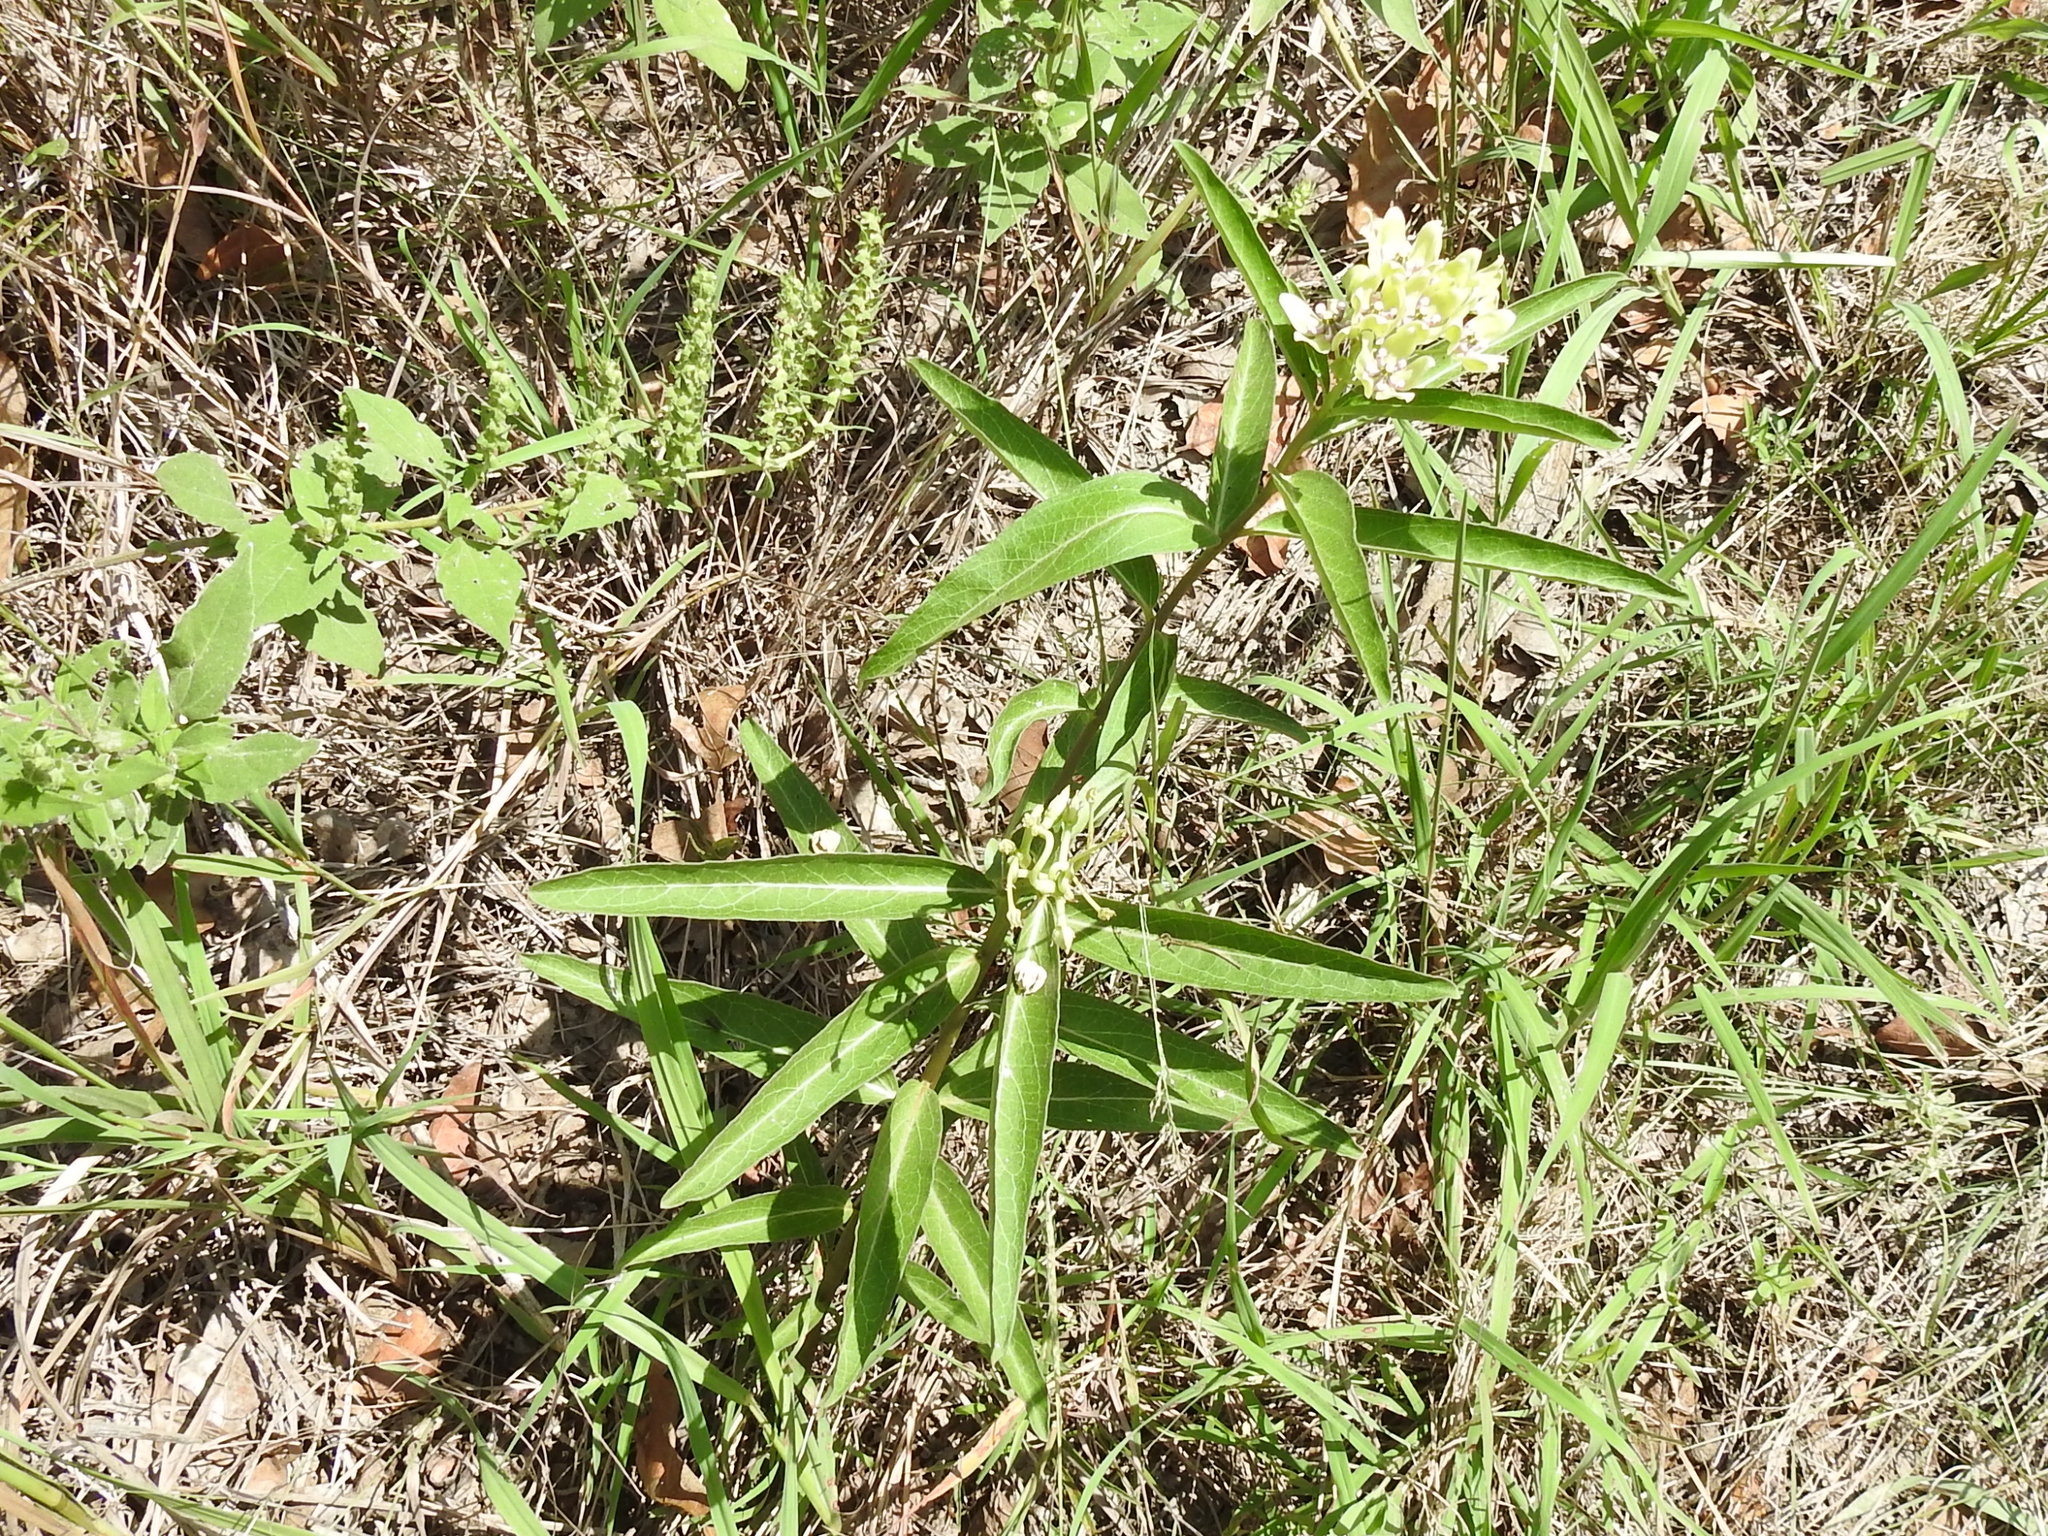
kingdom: Plantae
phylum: Tracheophyta
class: Magnoliopsida
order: Gentianales
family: Apocynaceae
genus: Asclepias
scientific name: Asclepias viridis
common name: Antelope-horns
